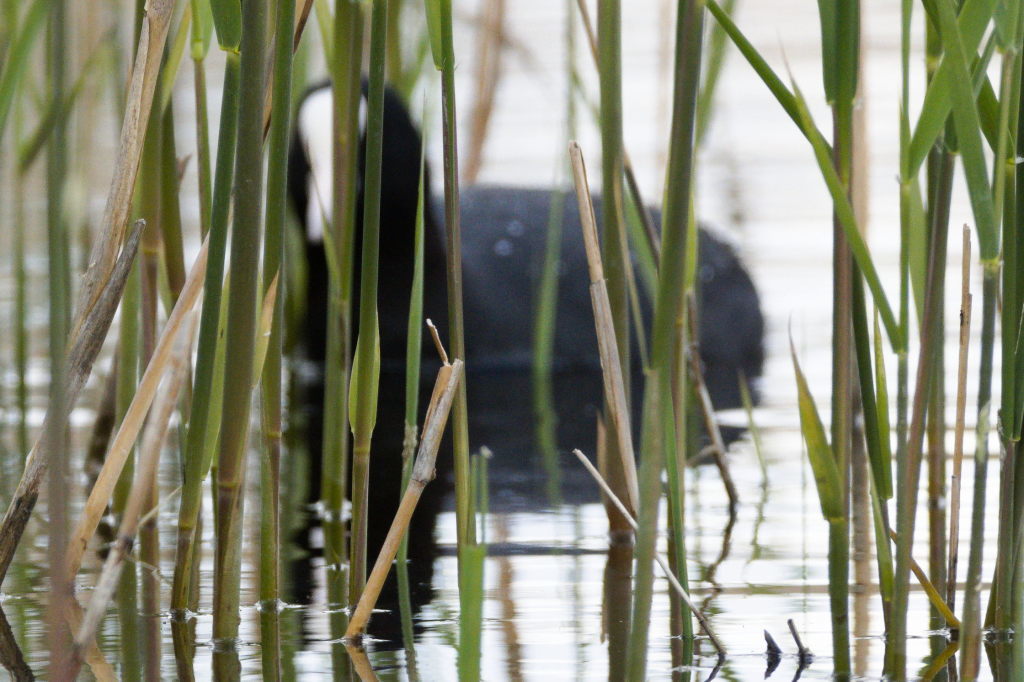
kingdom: Animalia
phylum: Chordata
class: Aves
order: Gruiformes
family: Rallidae
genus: Fulica
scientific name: Fulica atra
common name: Eurasian coot
